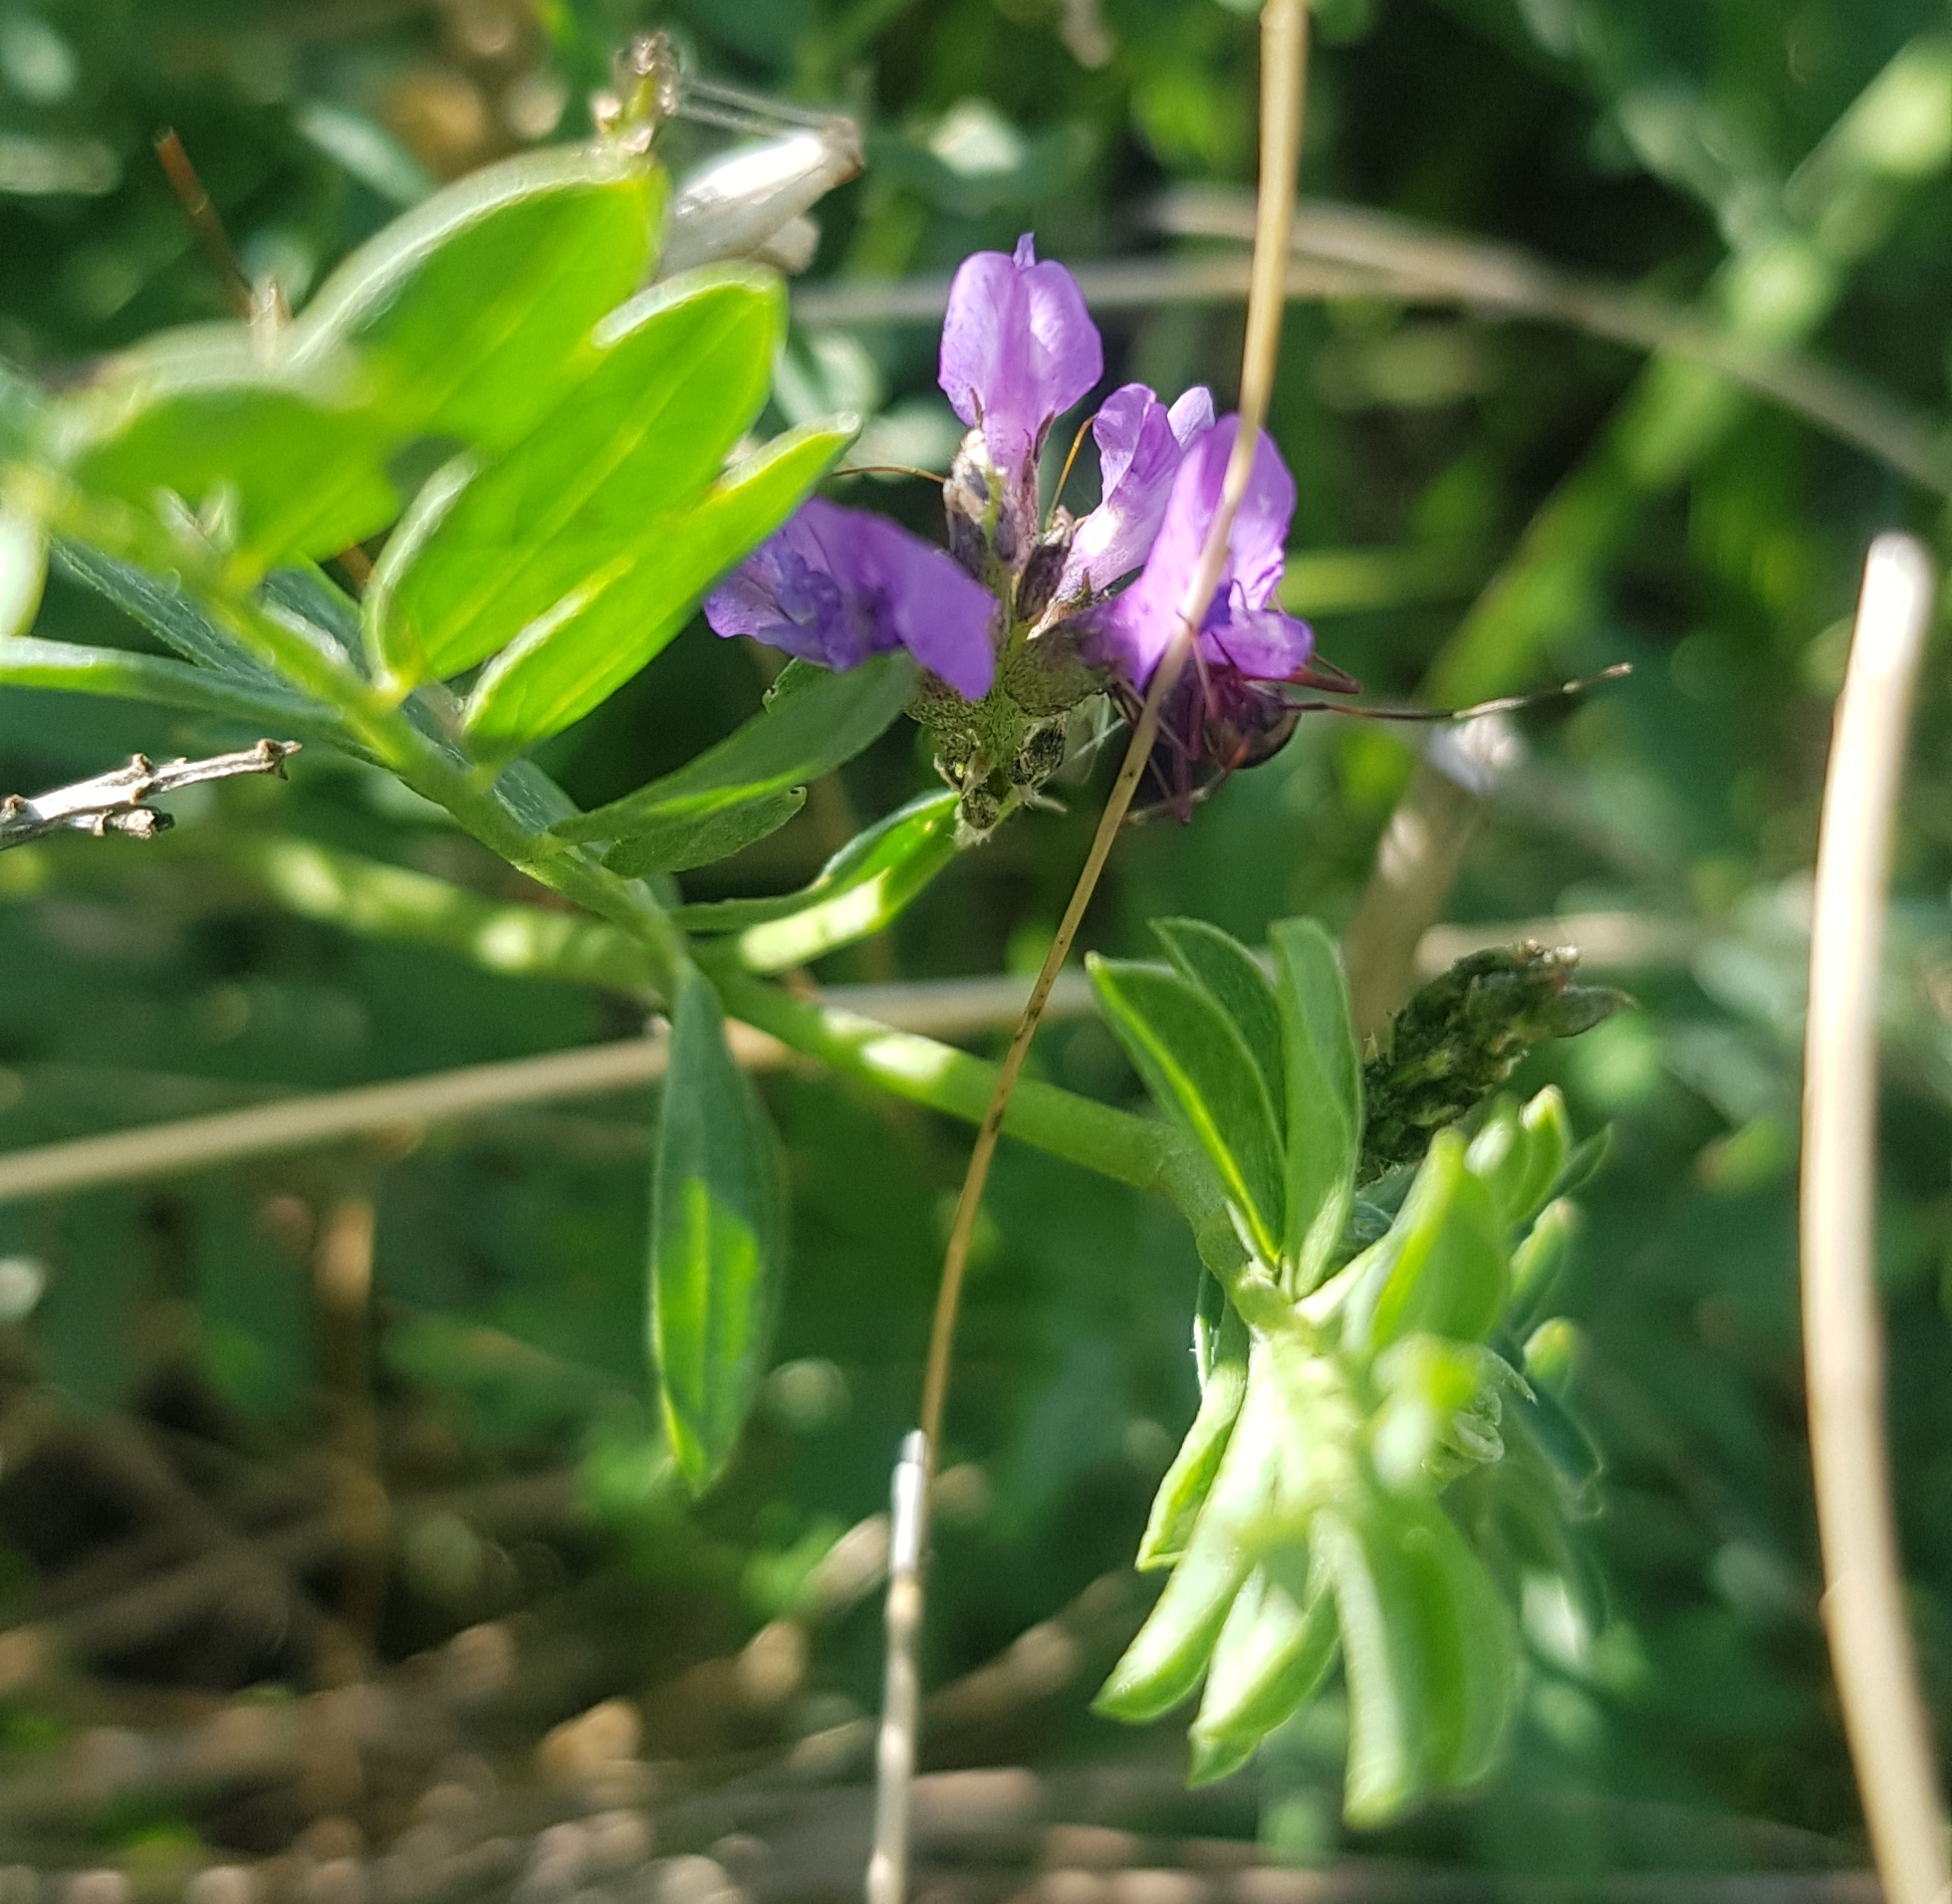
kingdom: Plantae
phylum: Tracheophyta
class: Magnoliopsida
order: Fabales
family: Fabaceae
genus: Astragalus
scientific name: Astragalus laxmannii
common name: Laxmann's milk-vetch
